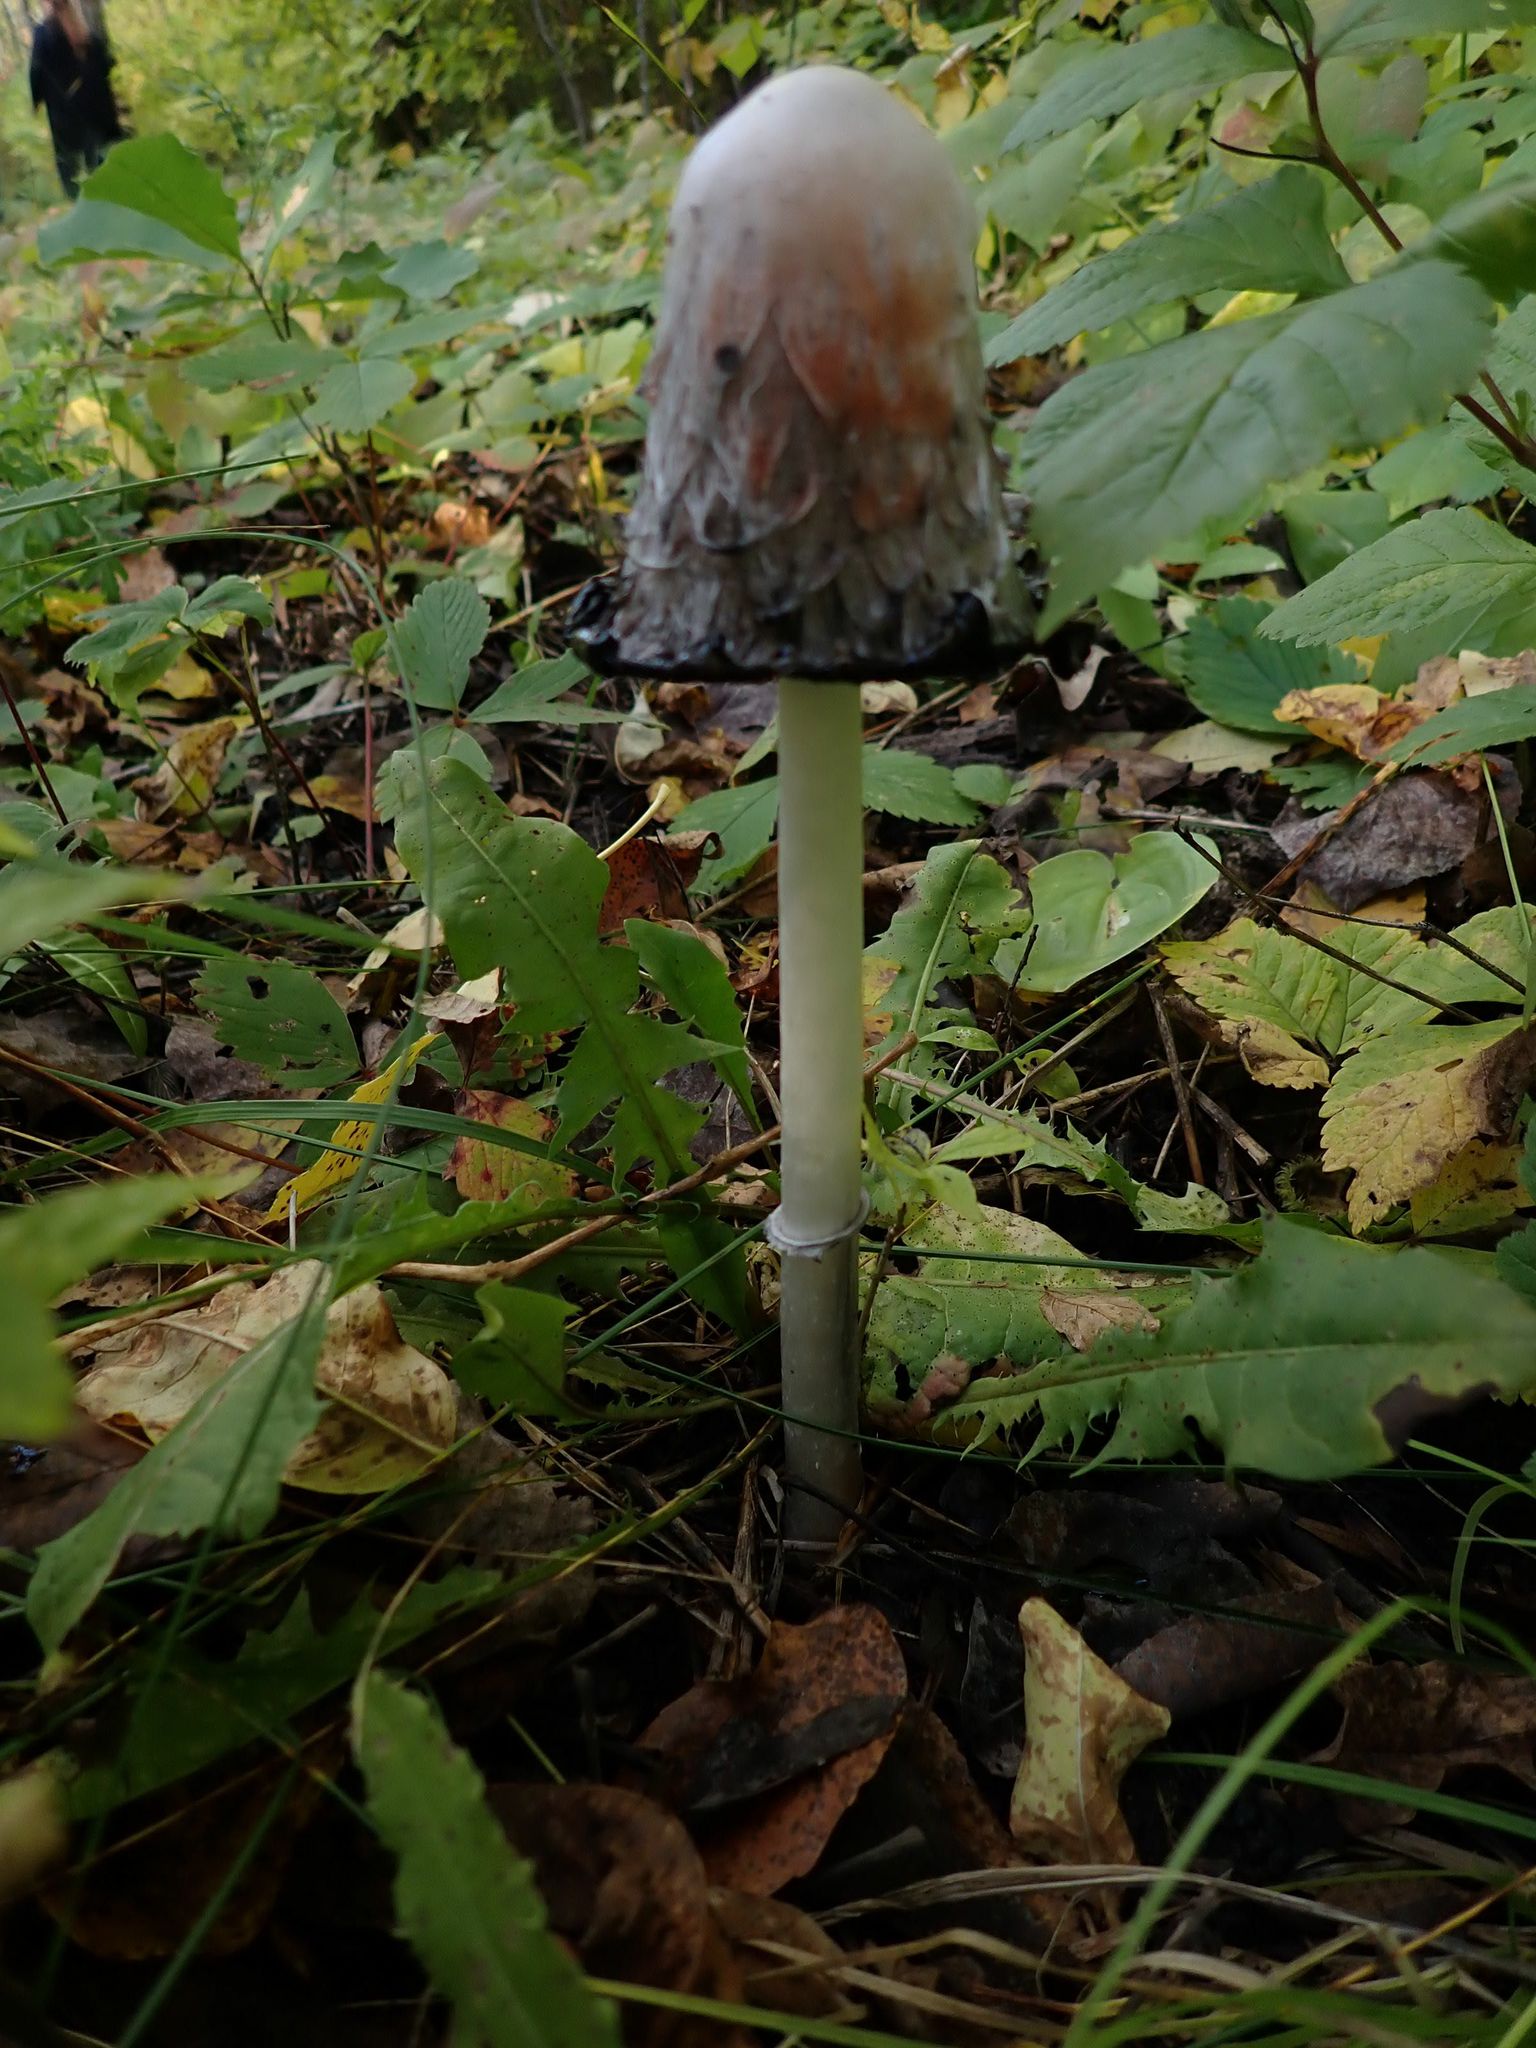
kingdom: Fungi
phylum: Basidiomycota
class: Agaricomycetes
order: Agaricales
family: Agaricaceae
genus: Coprinus
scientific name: Coprinus comatus
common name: Lawyer's wig
